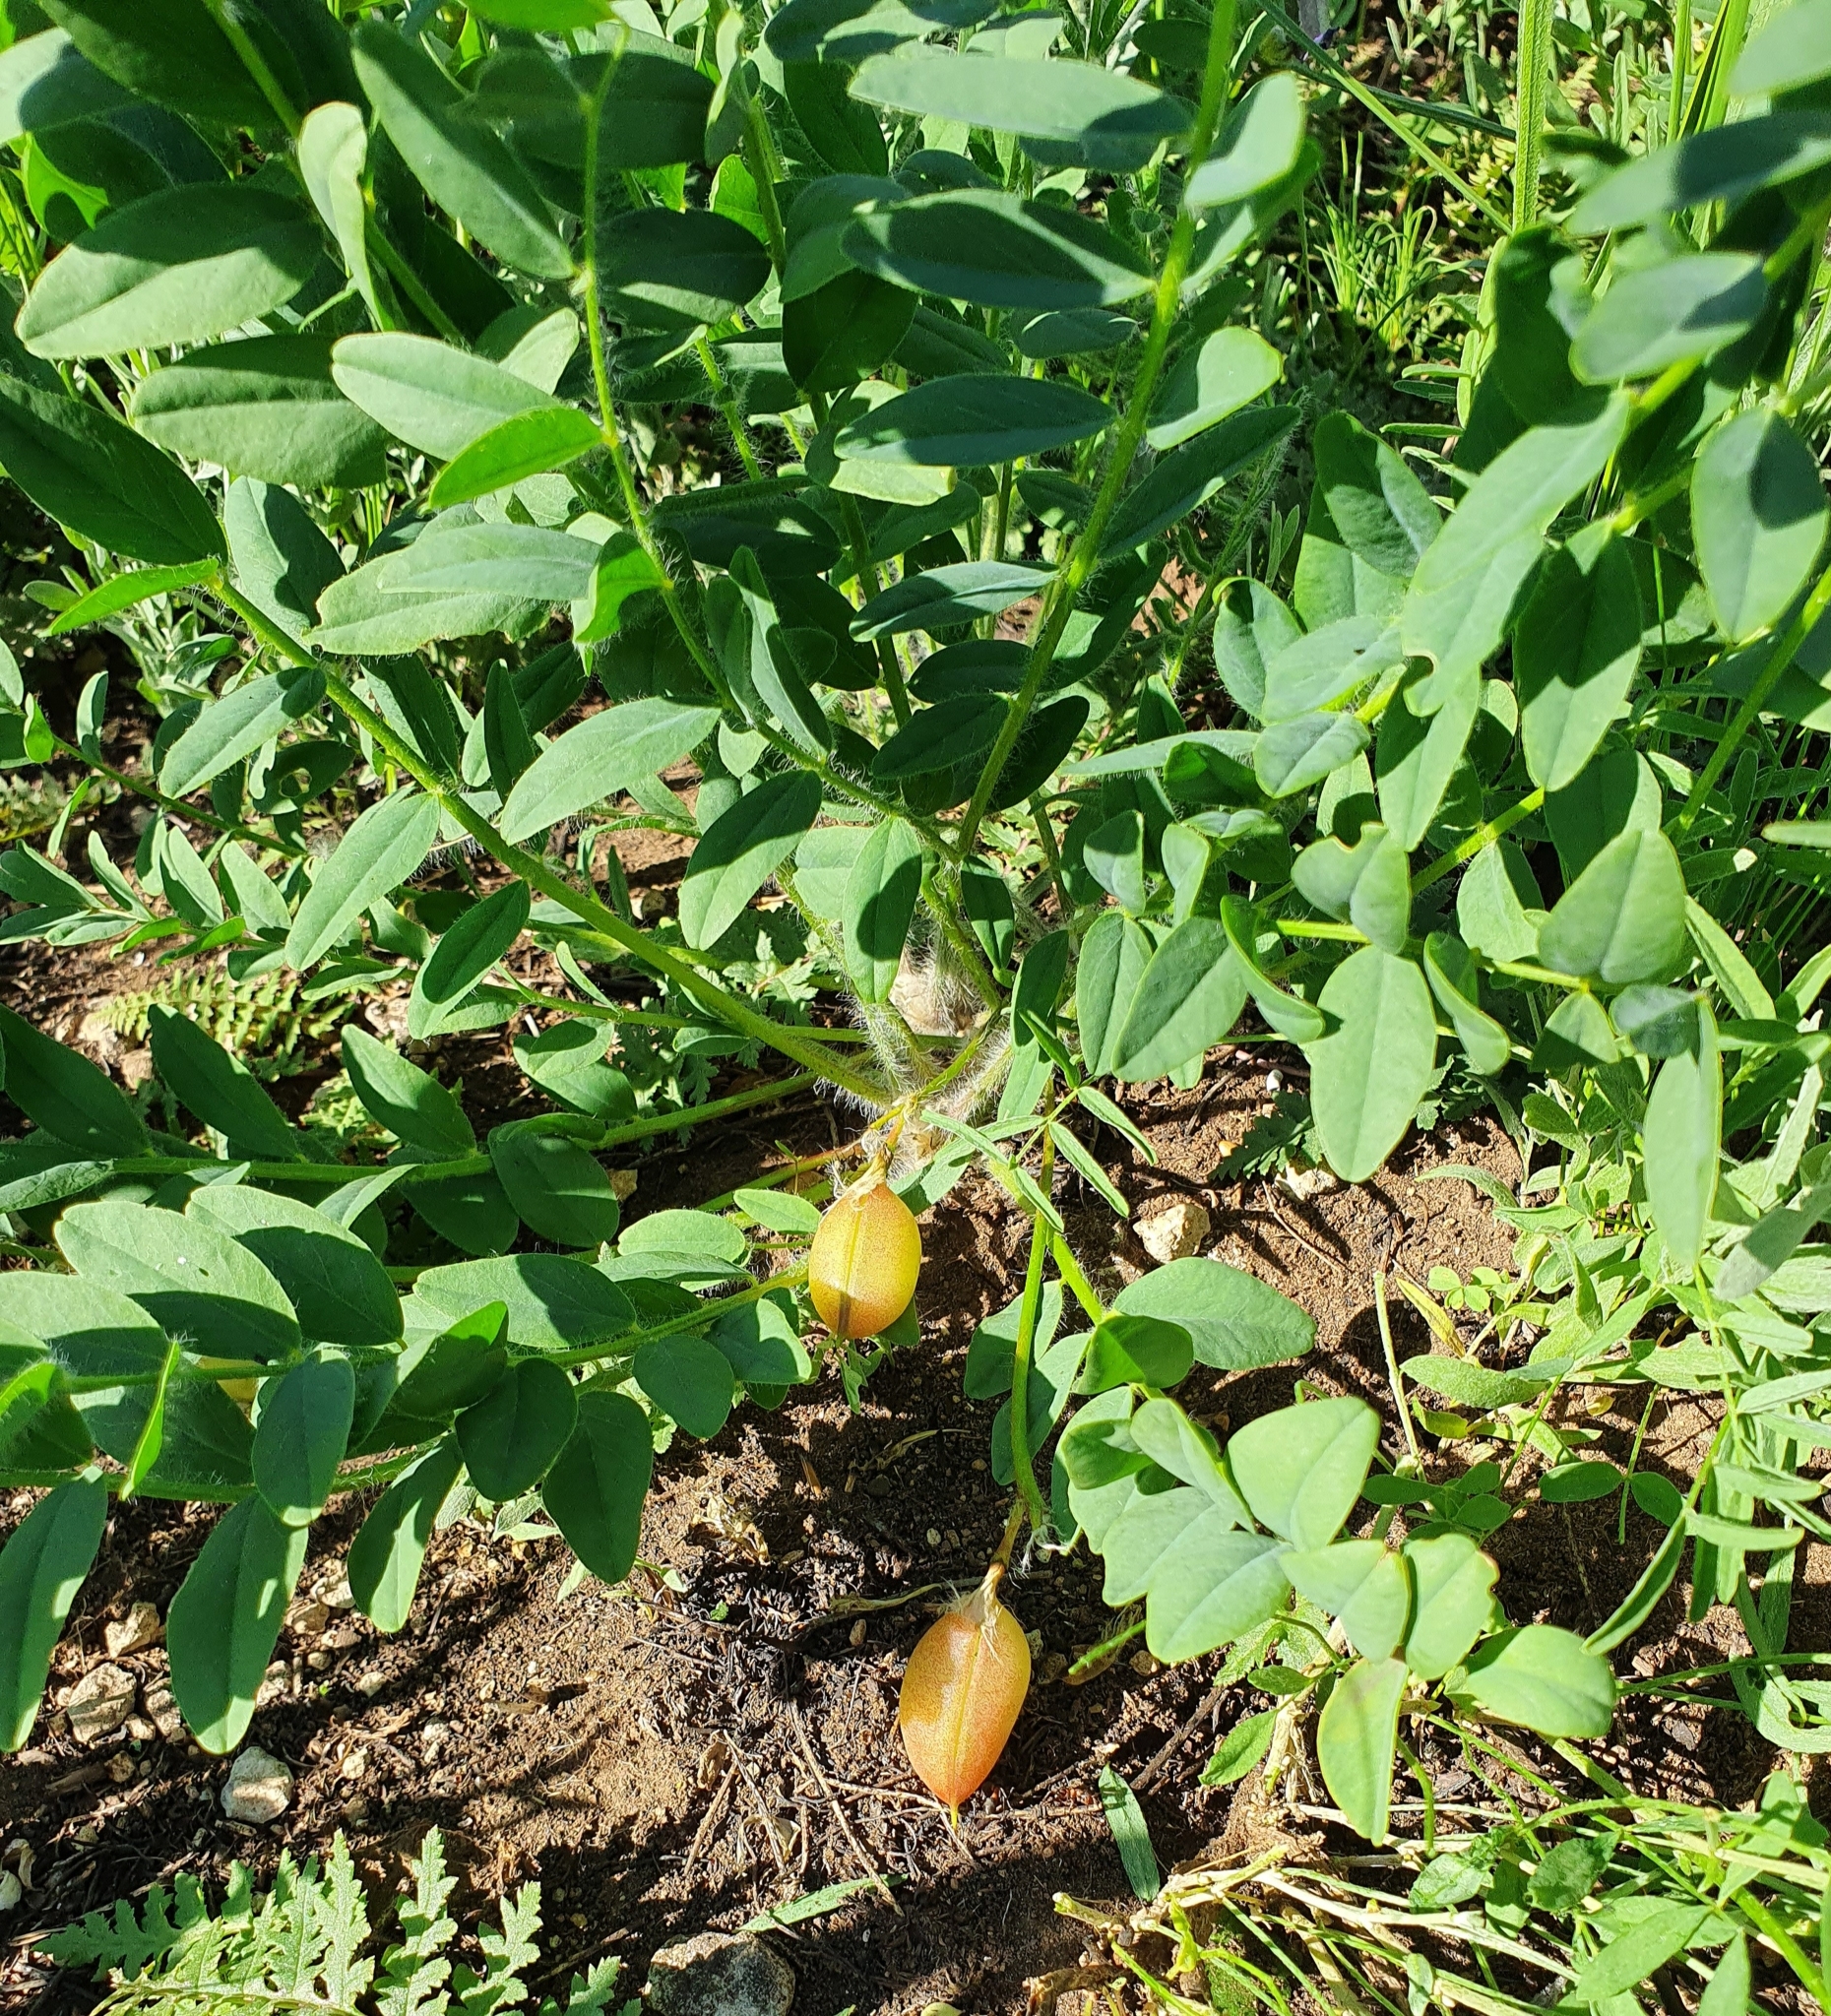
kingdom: Plantae
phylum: Tracheophyta
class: Magnoliopsida
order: Fabales
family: Fabaceae
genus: Astragalus
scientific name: Astragalus wolgensis
